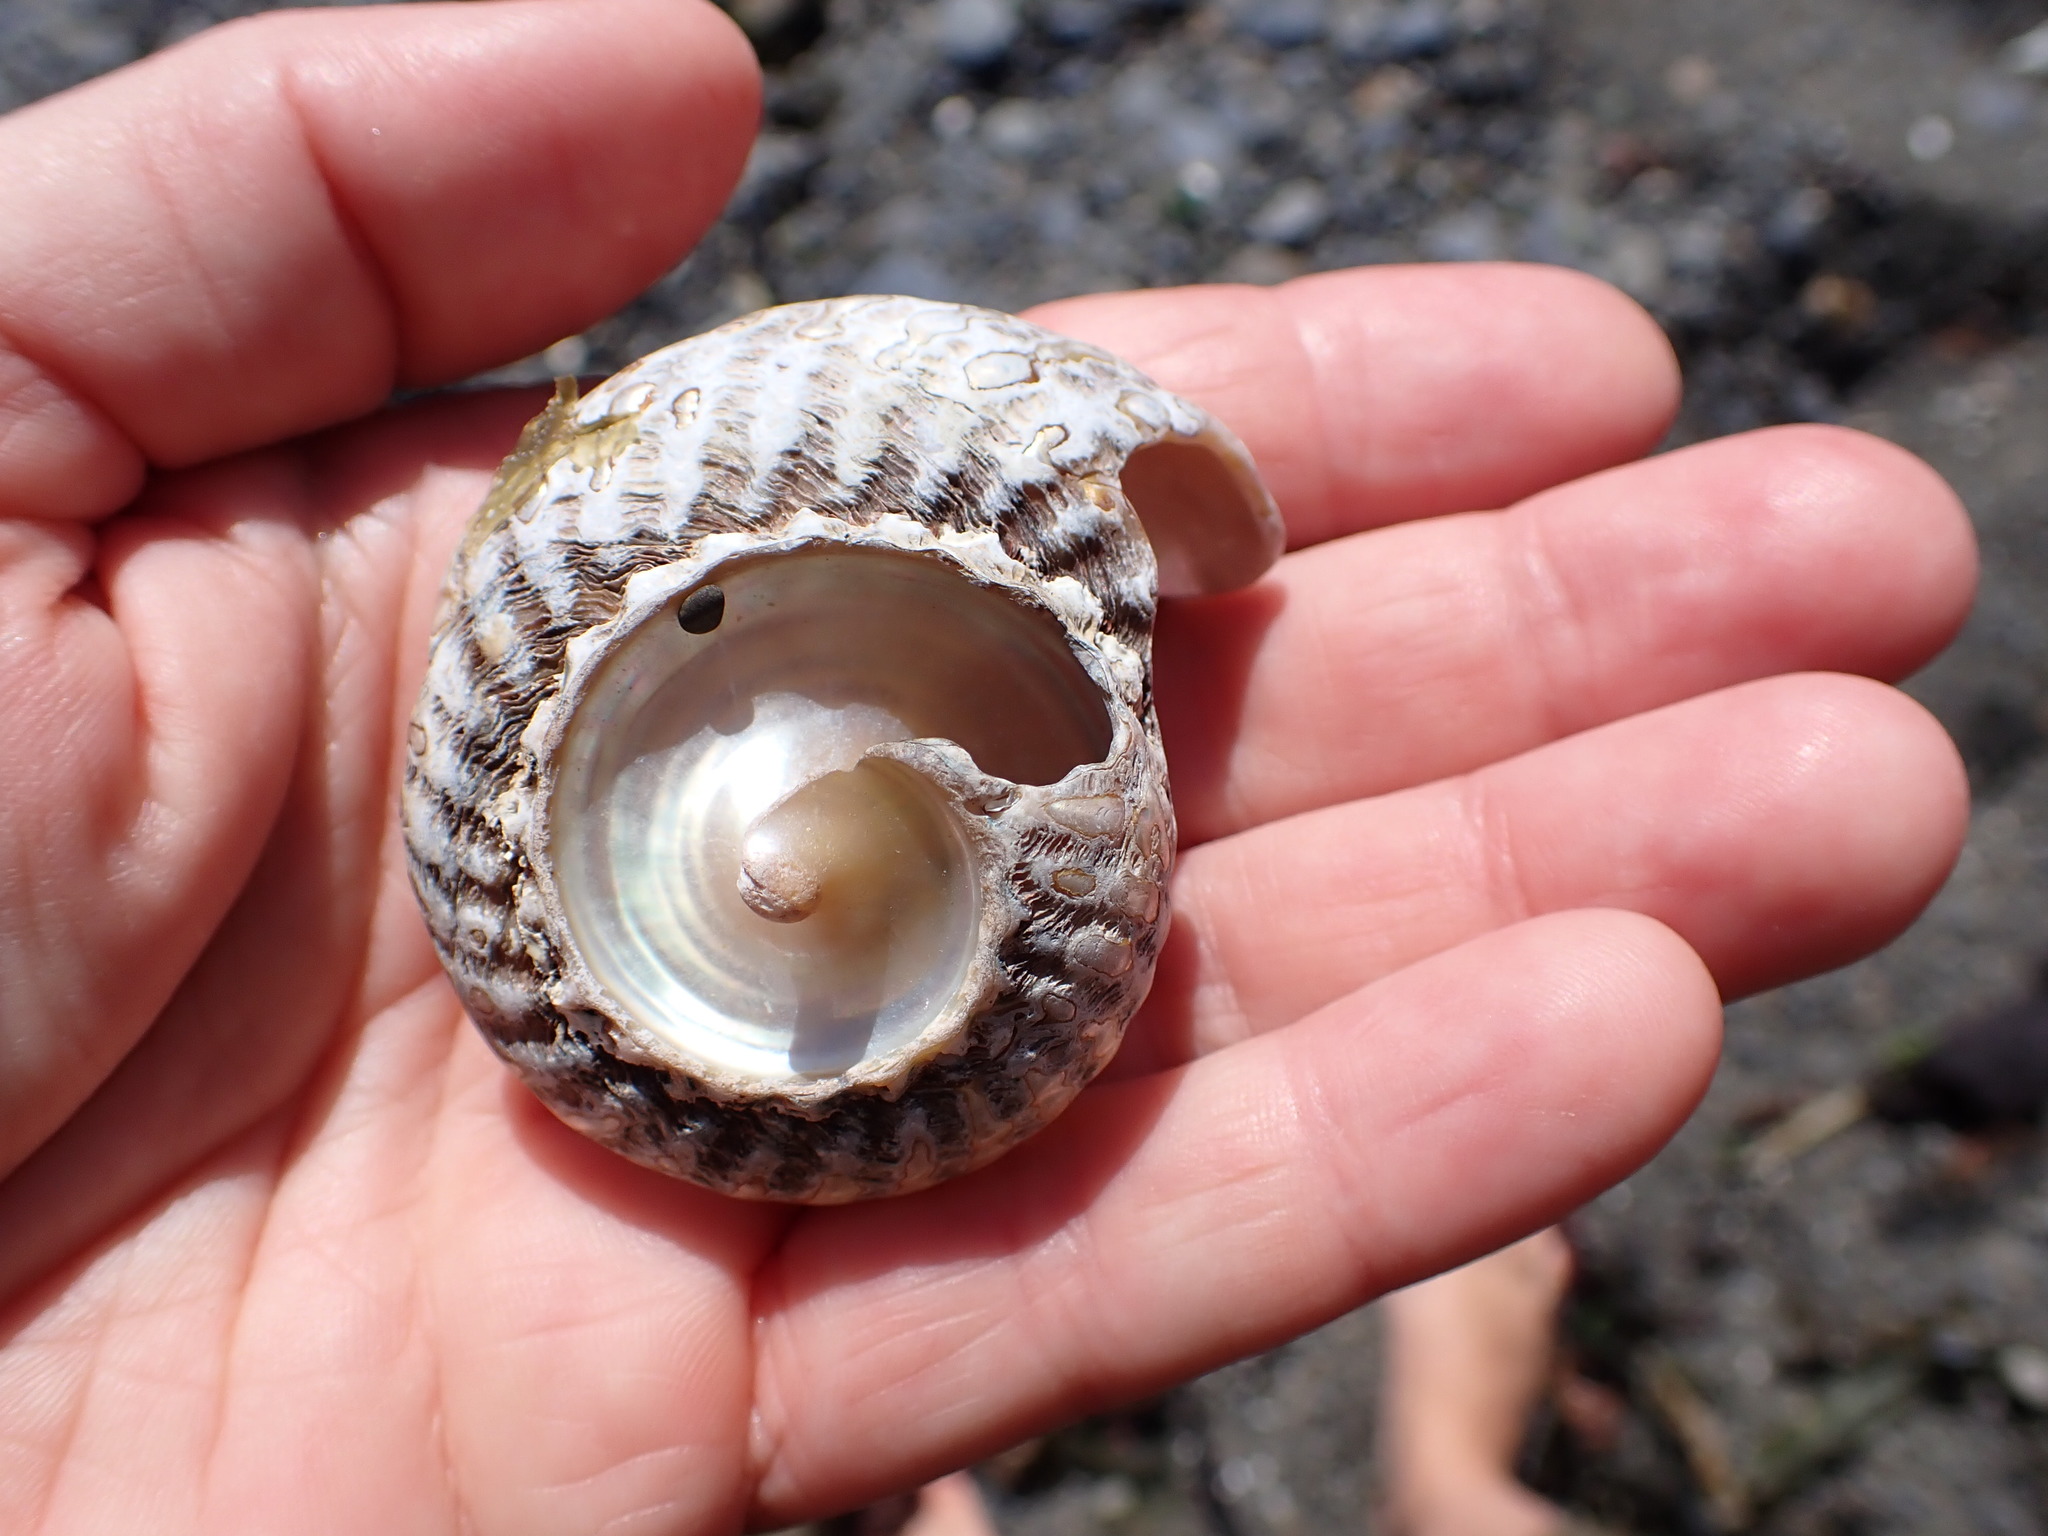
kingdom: Animalia
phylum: Mollusca
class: Gastropoda
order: Trochida
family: Turbinidae
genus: Cookia
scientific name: Cookia sulcata
